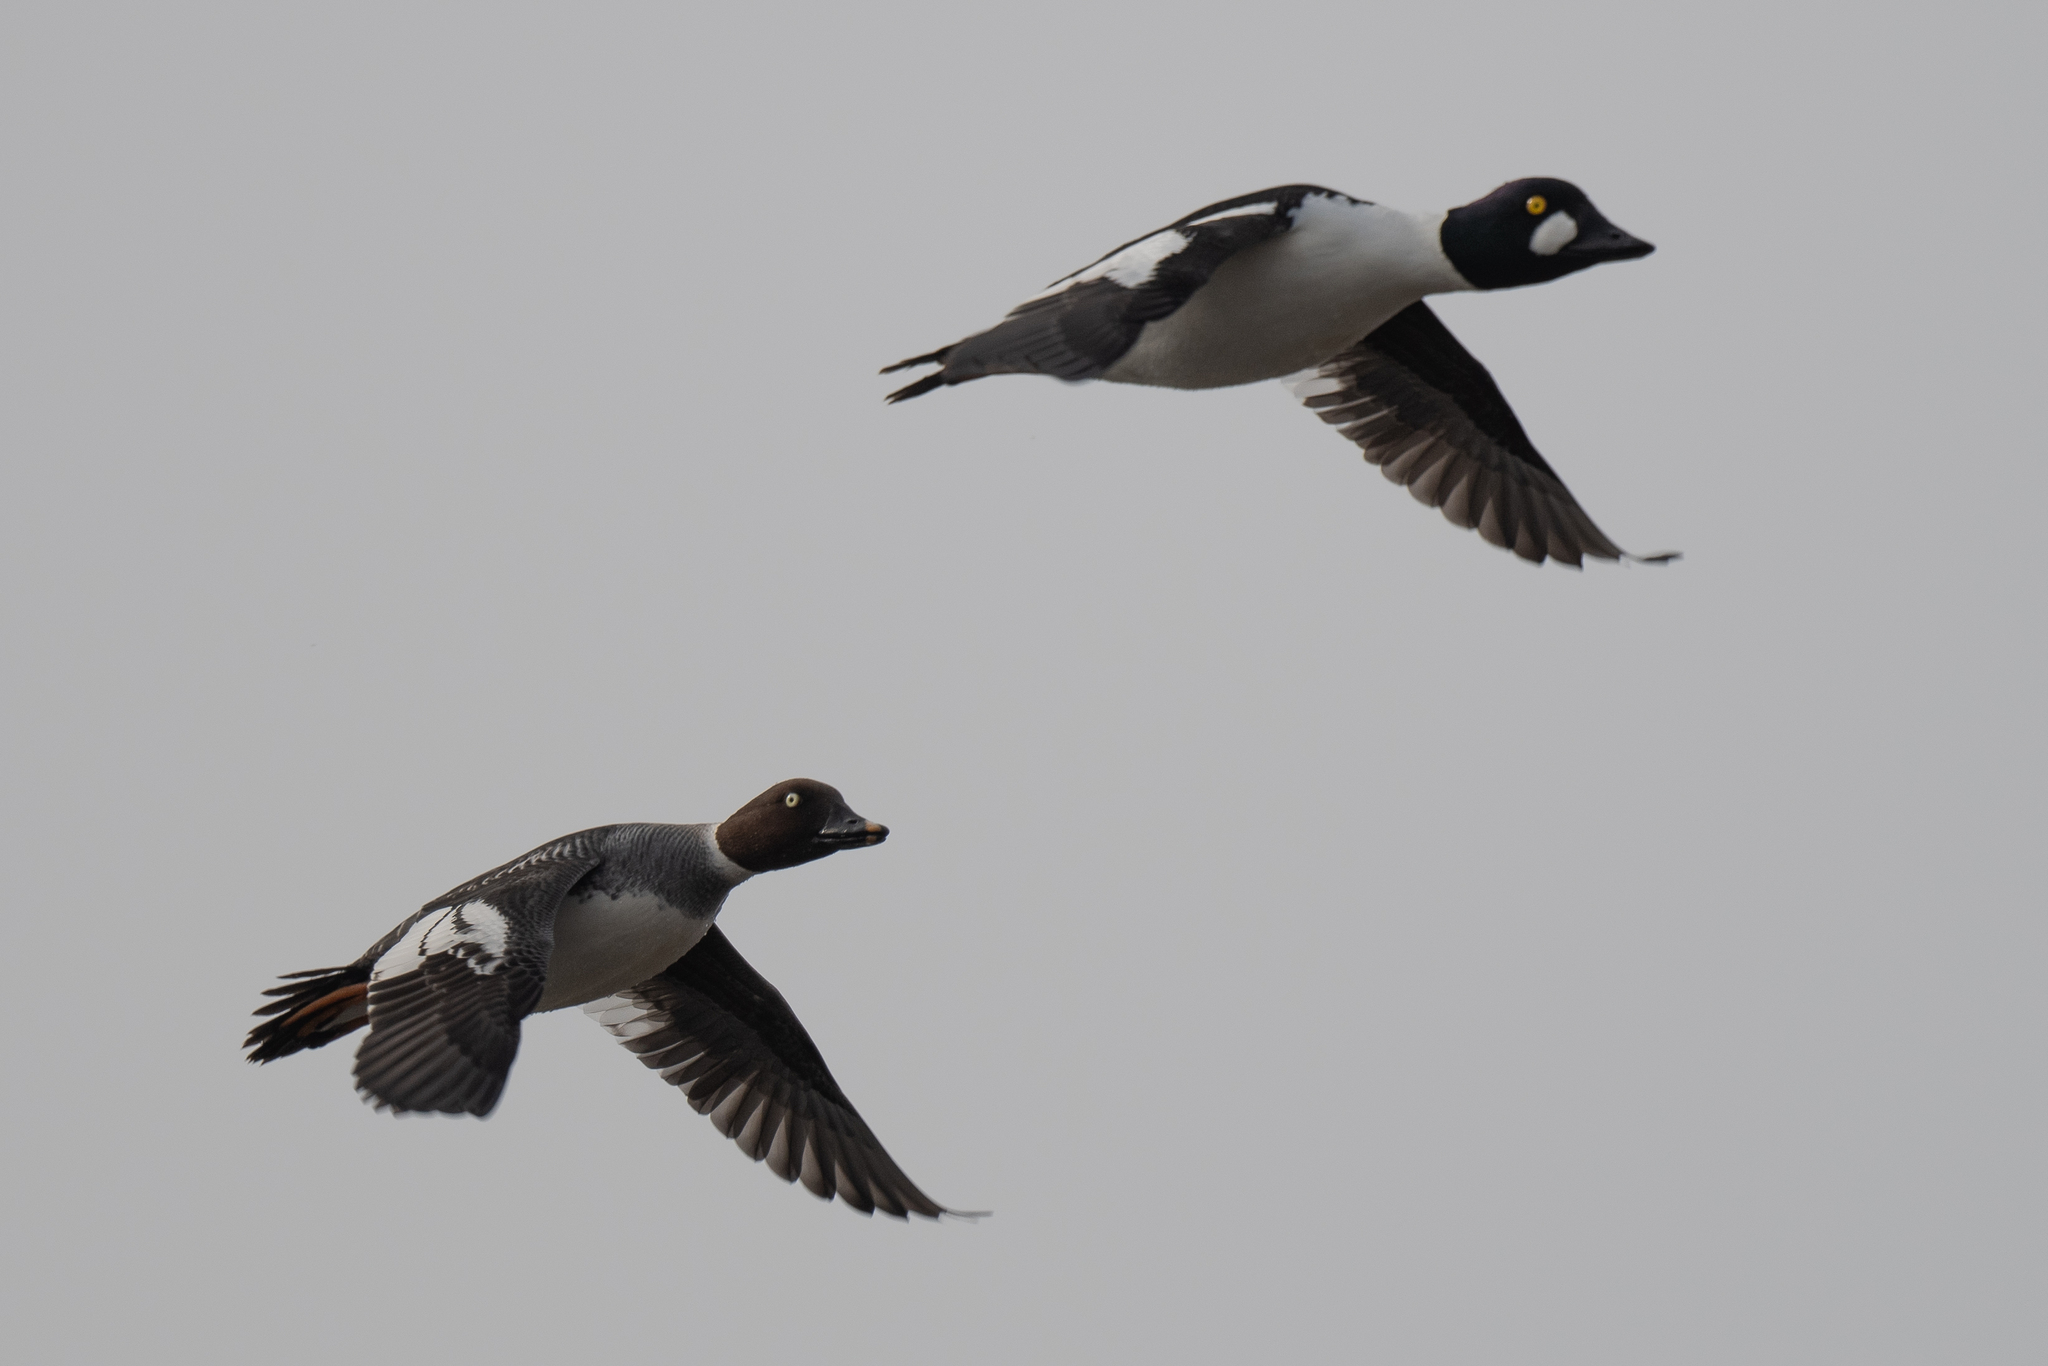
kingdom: Animalia
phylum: Chordata
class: Aves
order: Anseriformes
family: Anatidae
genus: Bucephala
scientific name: Bucephala clangula
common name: Common goldeneye
